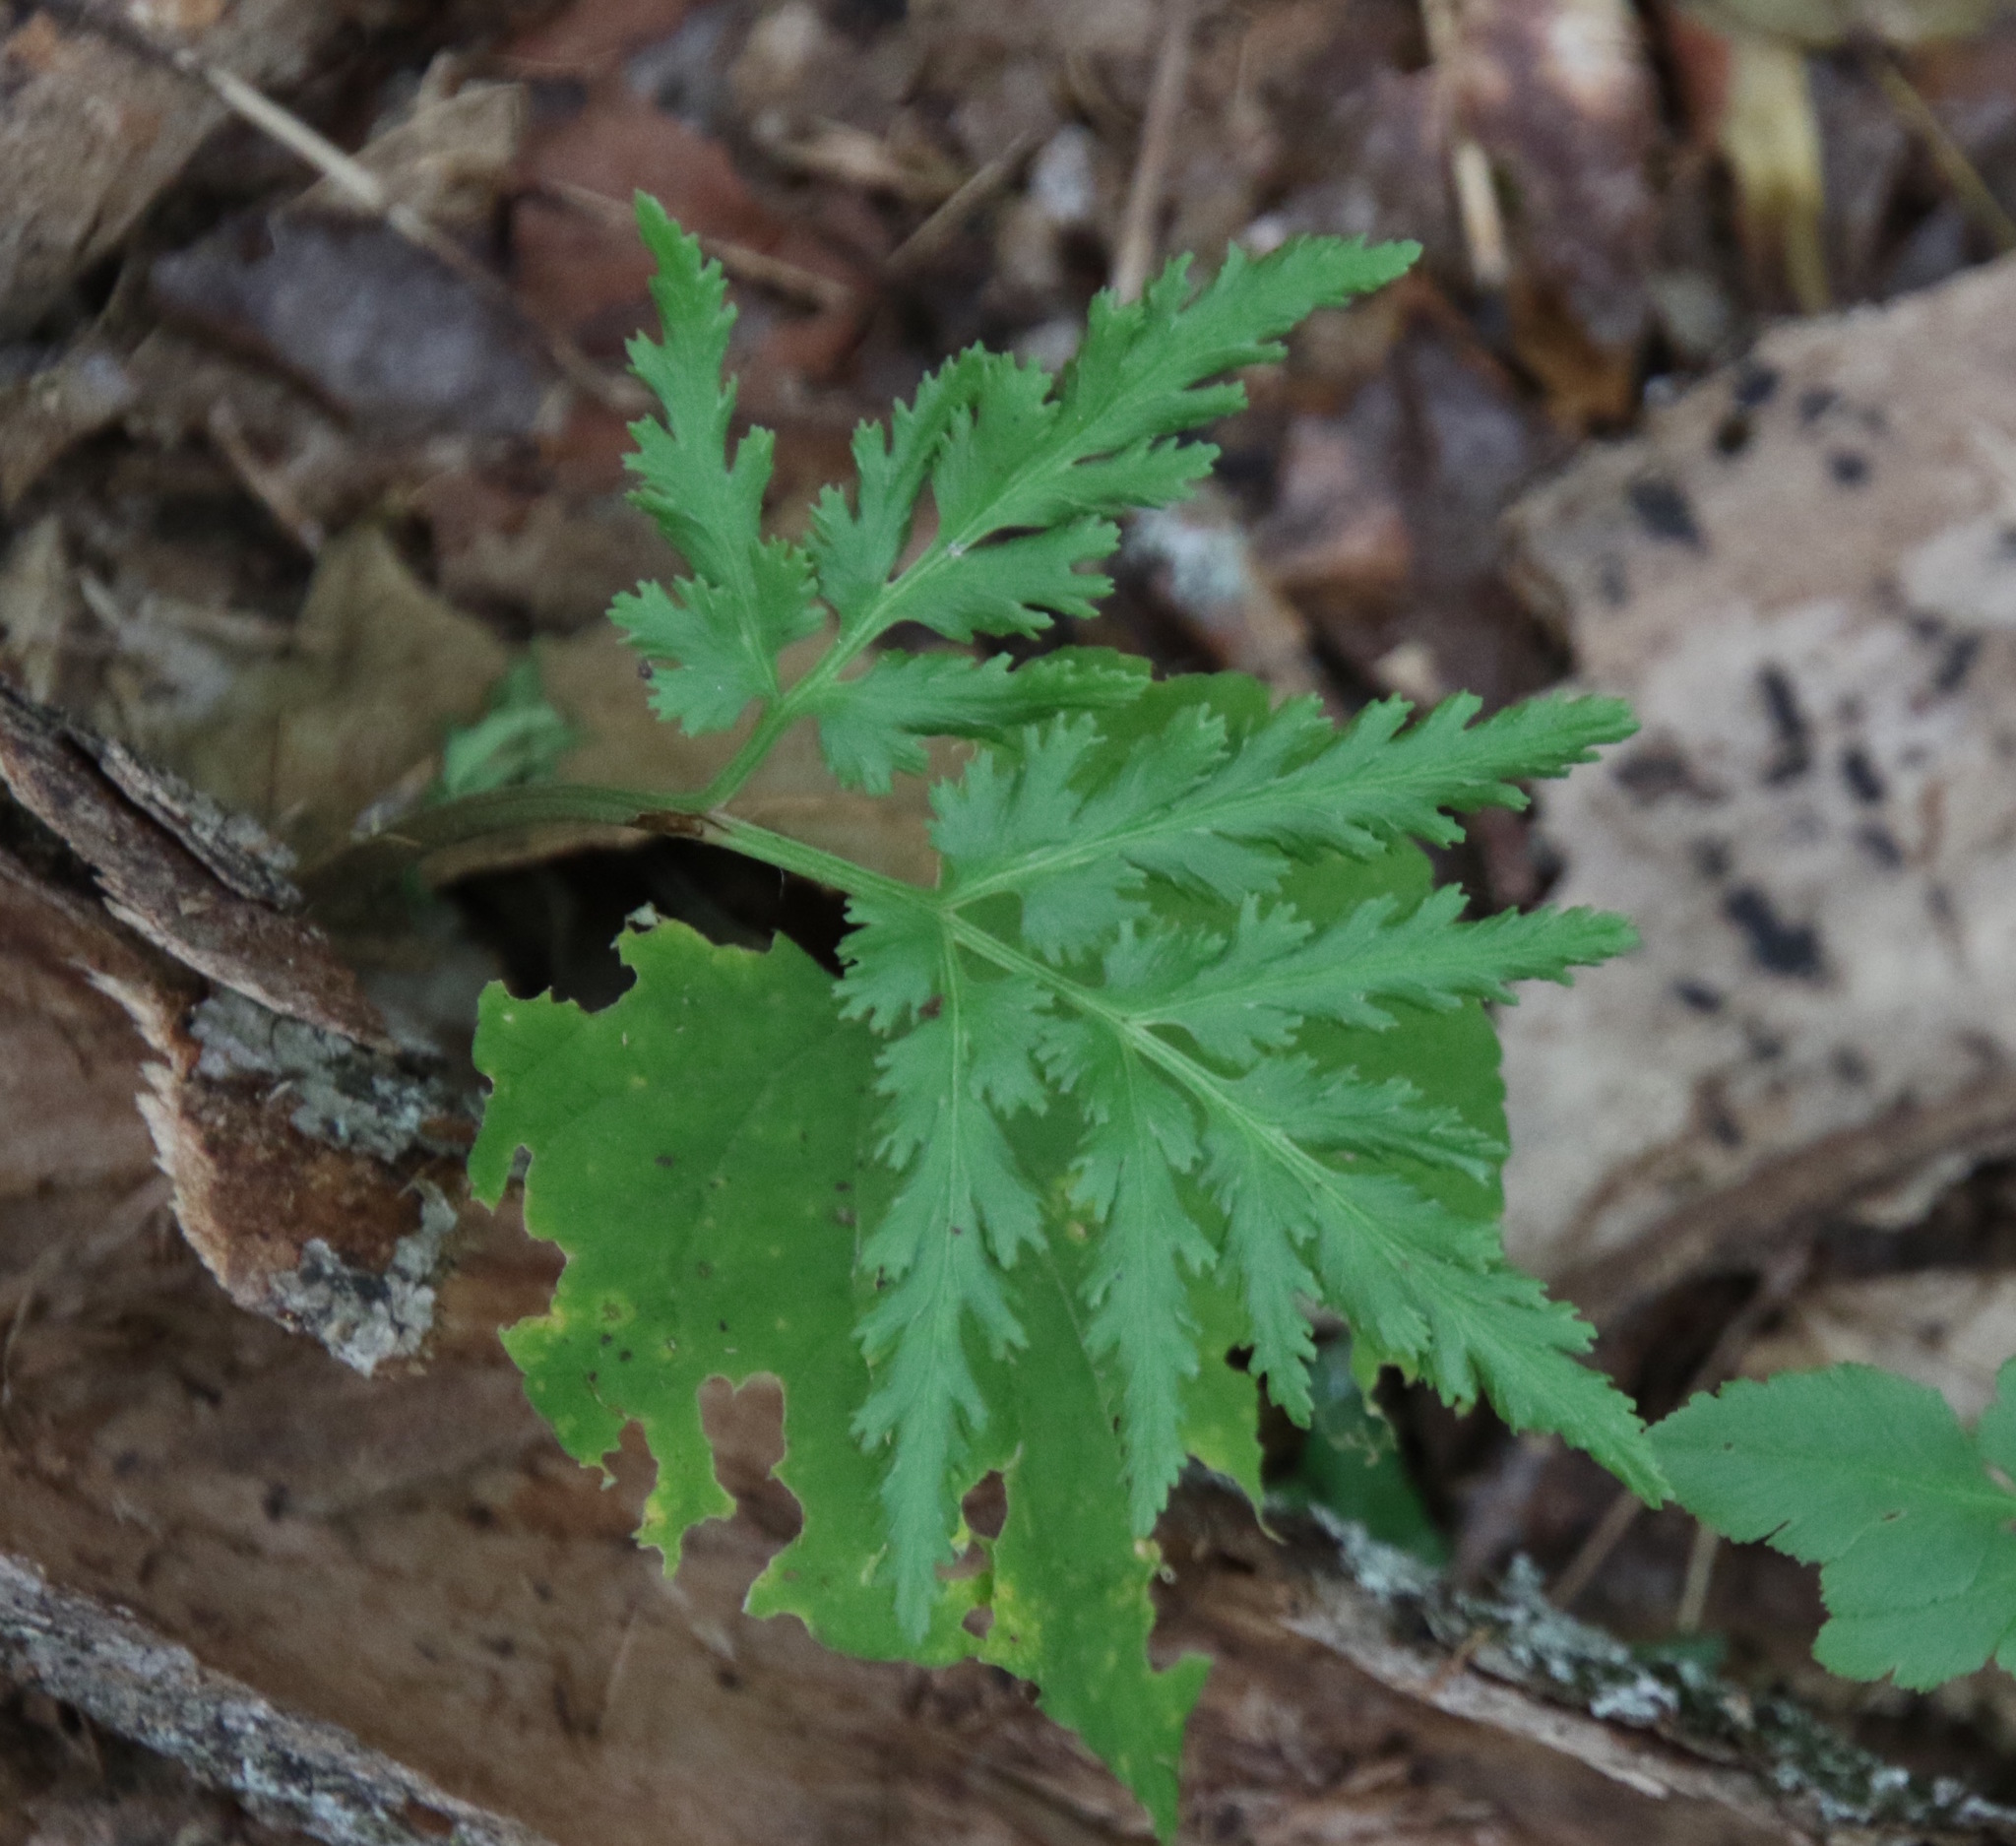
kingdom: Plantae
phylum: Tracheophyta
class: Polypodiopsida
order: Ophioglossales
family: Ophioglossaceae
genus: Sceptridium
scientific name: Sceptridium dissectum
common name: Cut-leaved grapefern
